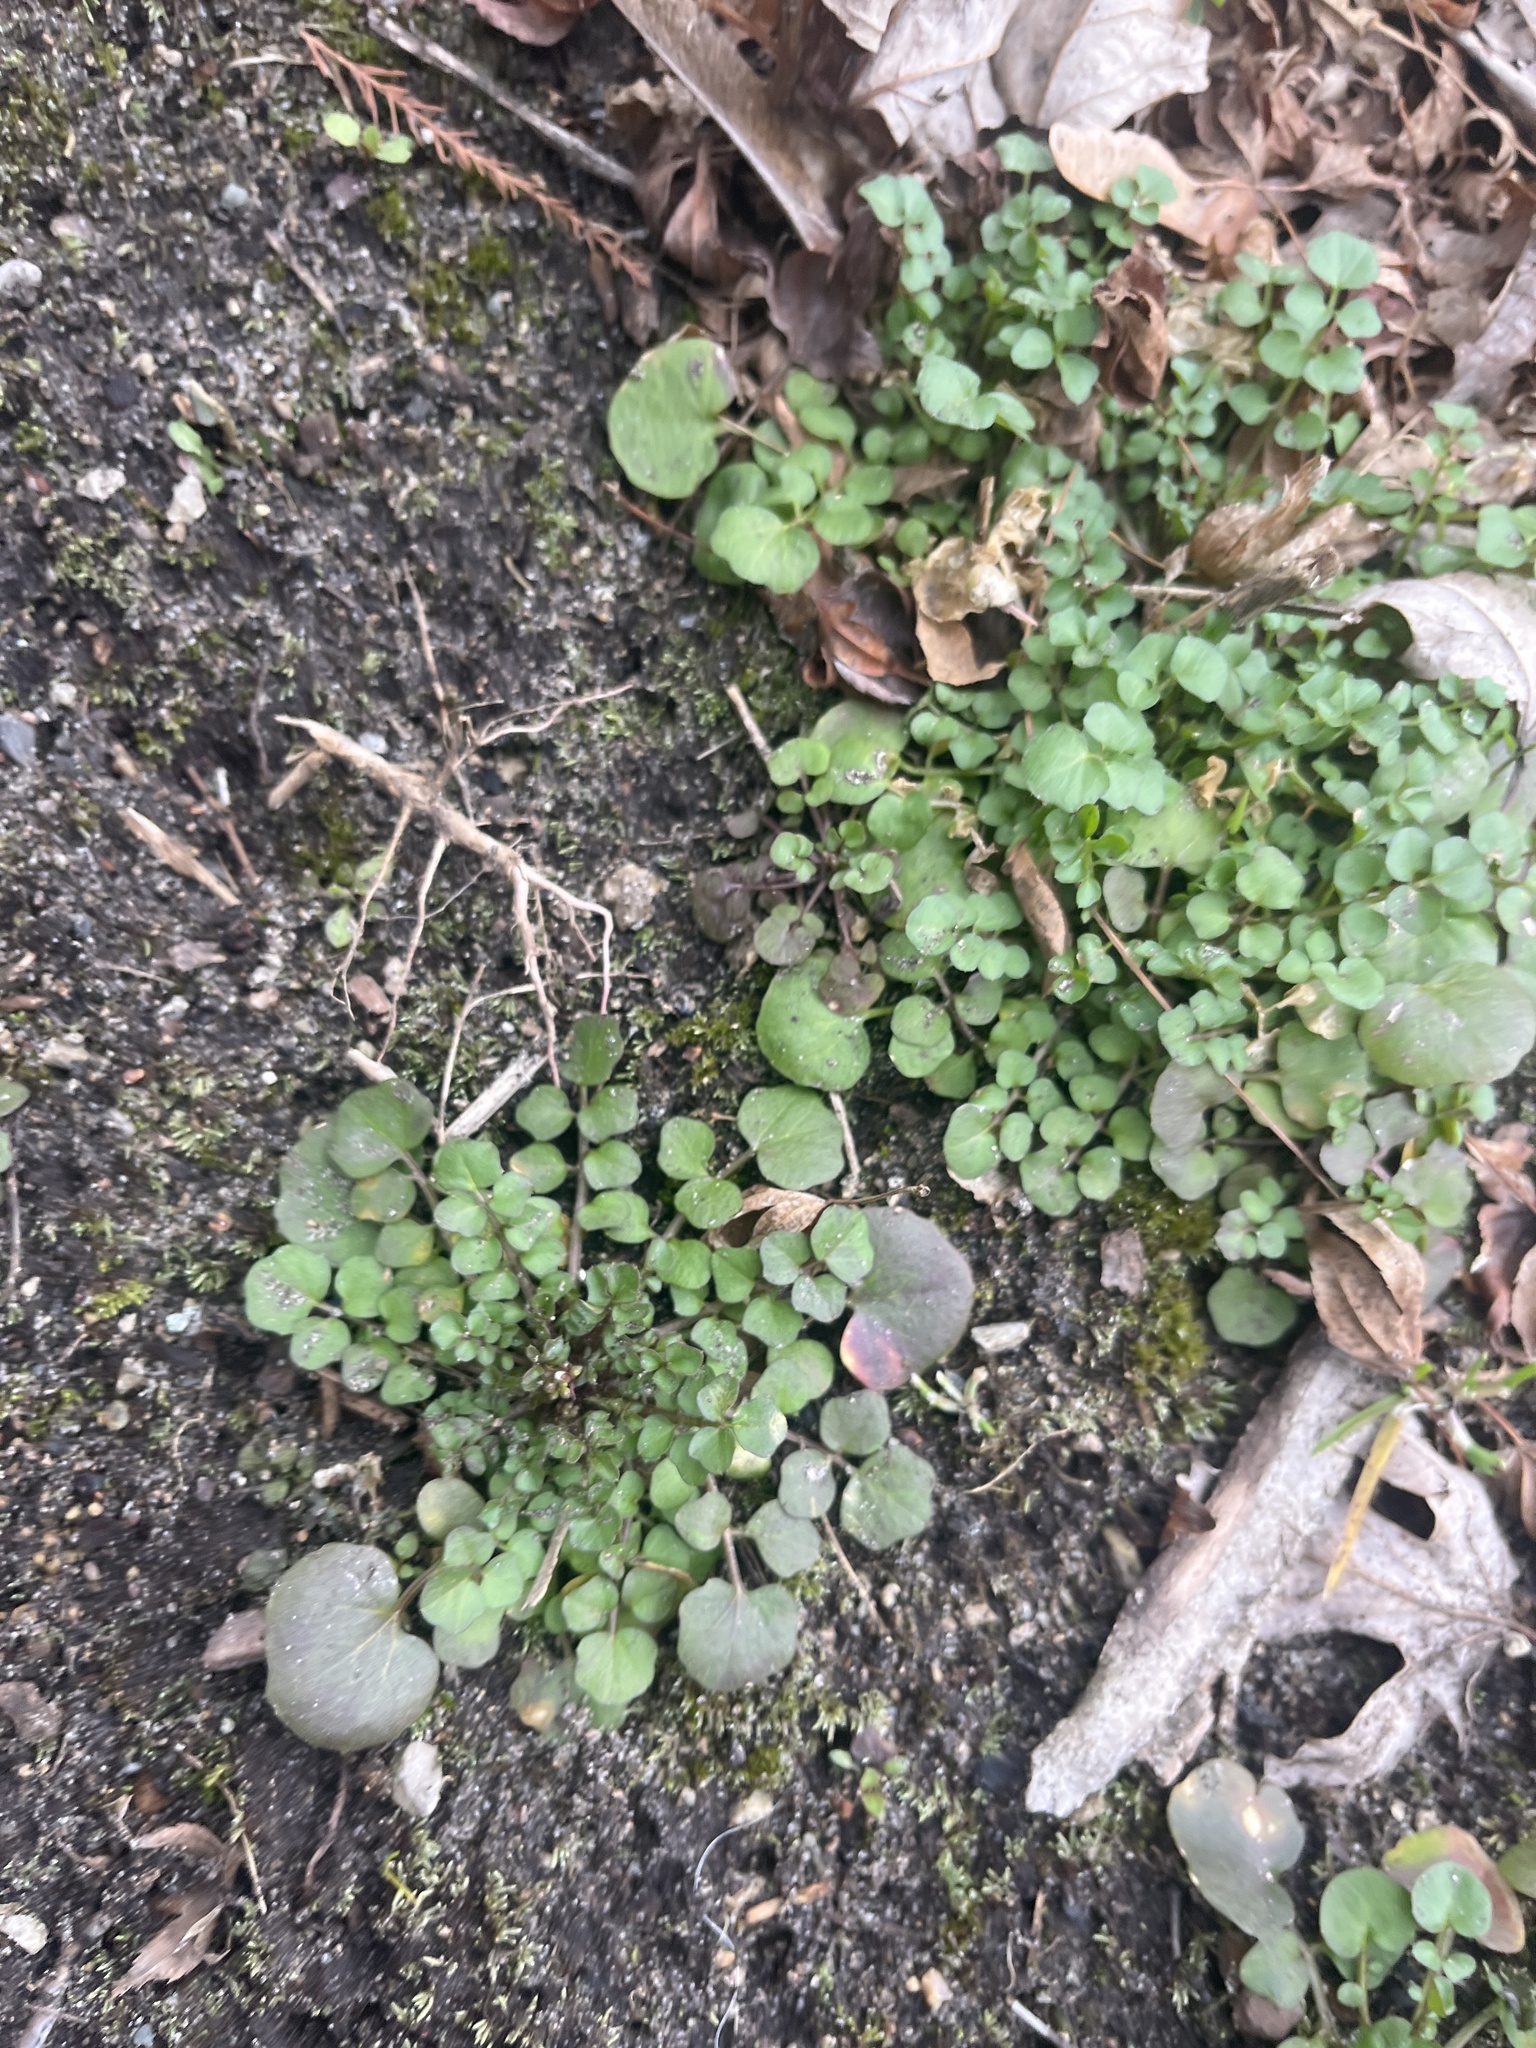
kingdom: Plantae
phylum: Tracheophyta
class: Magnoliopsida
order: Brassicales
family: Brassicaceae
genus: Cardamine
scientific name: Cardamine hirsuta
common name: Hairy bittercress
